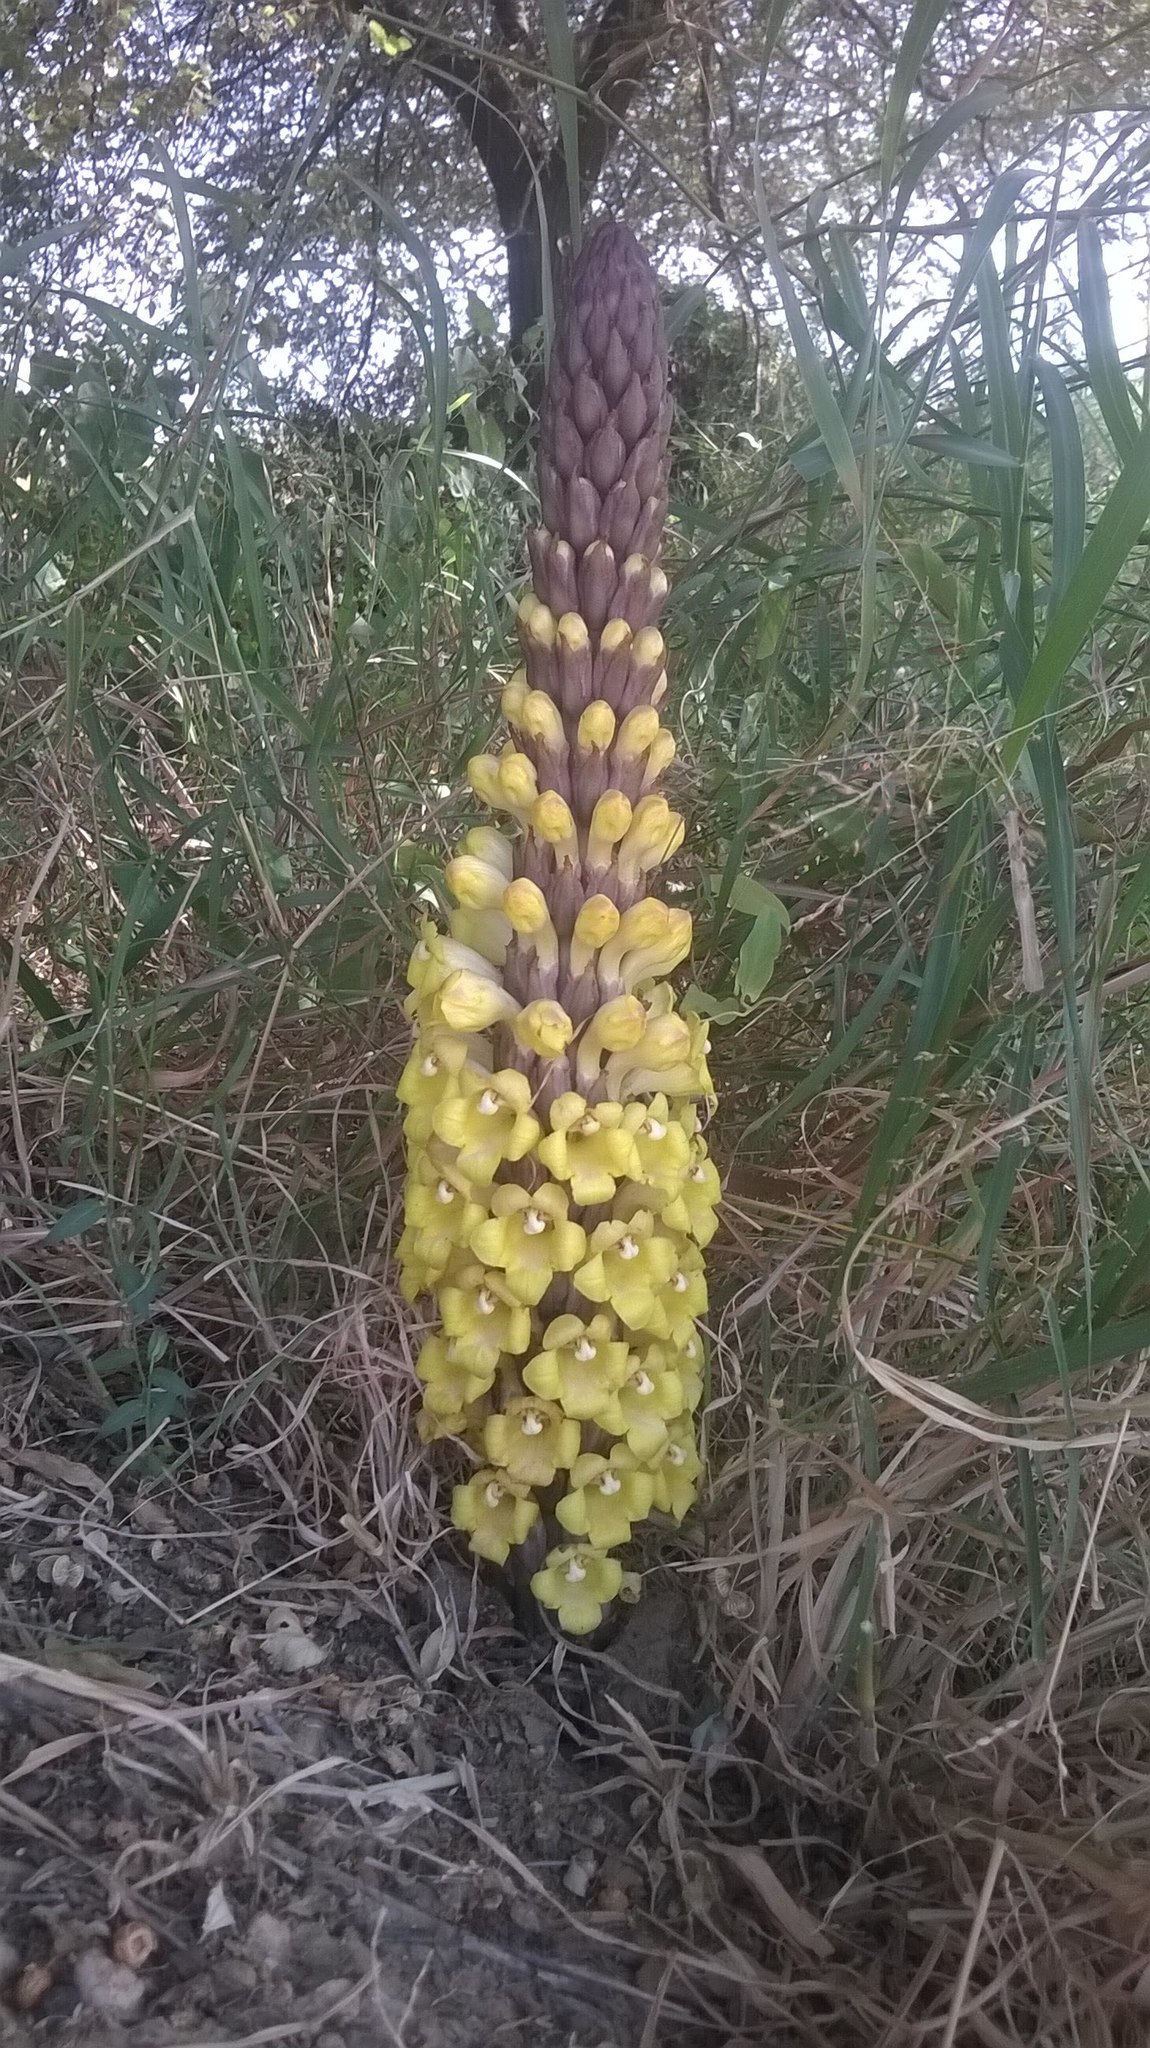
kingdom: Plantae
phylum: Tracheophyta
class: Magnoliopsida
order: Lamiales
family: Orobanchaceae
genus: Cistanche
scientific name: Cistanche tubulosa
